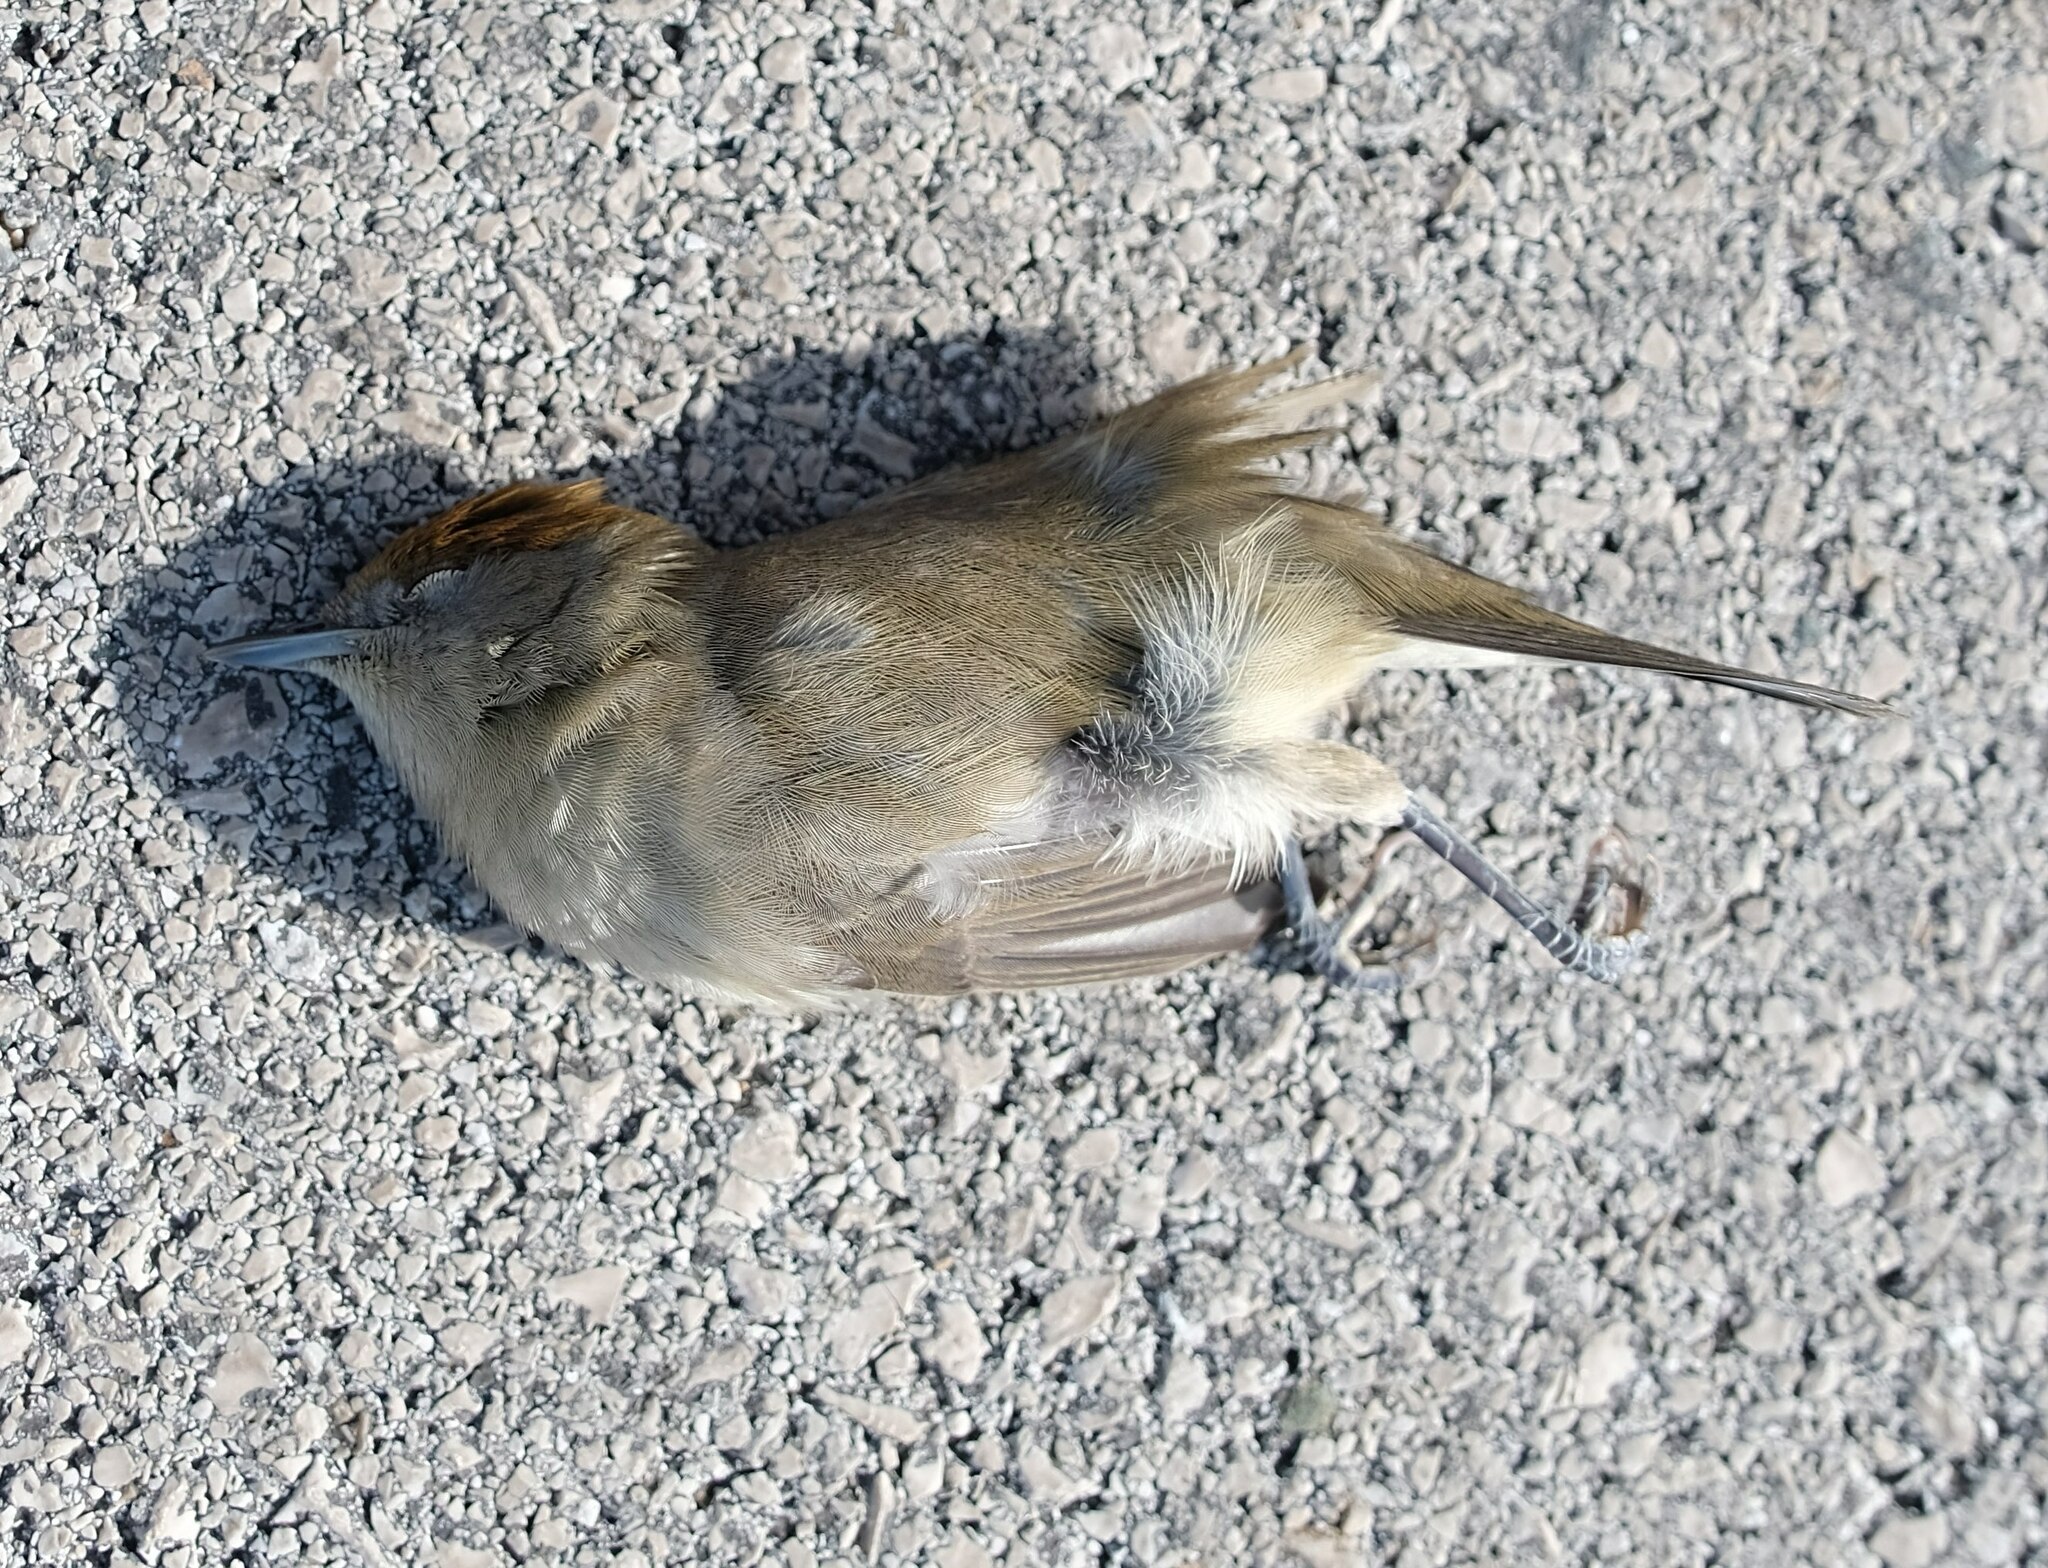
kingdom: Animalia
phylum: Chordata
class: Aves
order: Passeriformes
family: Sylviidae
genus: Sylvia
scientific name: Sylvia atricapilla
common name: Eurasian blackcap
